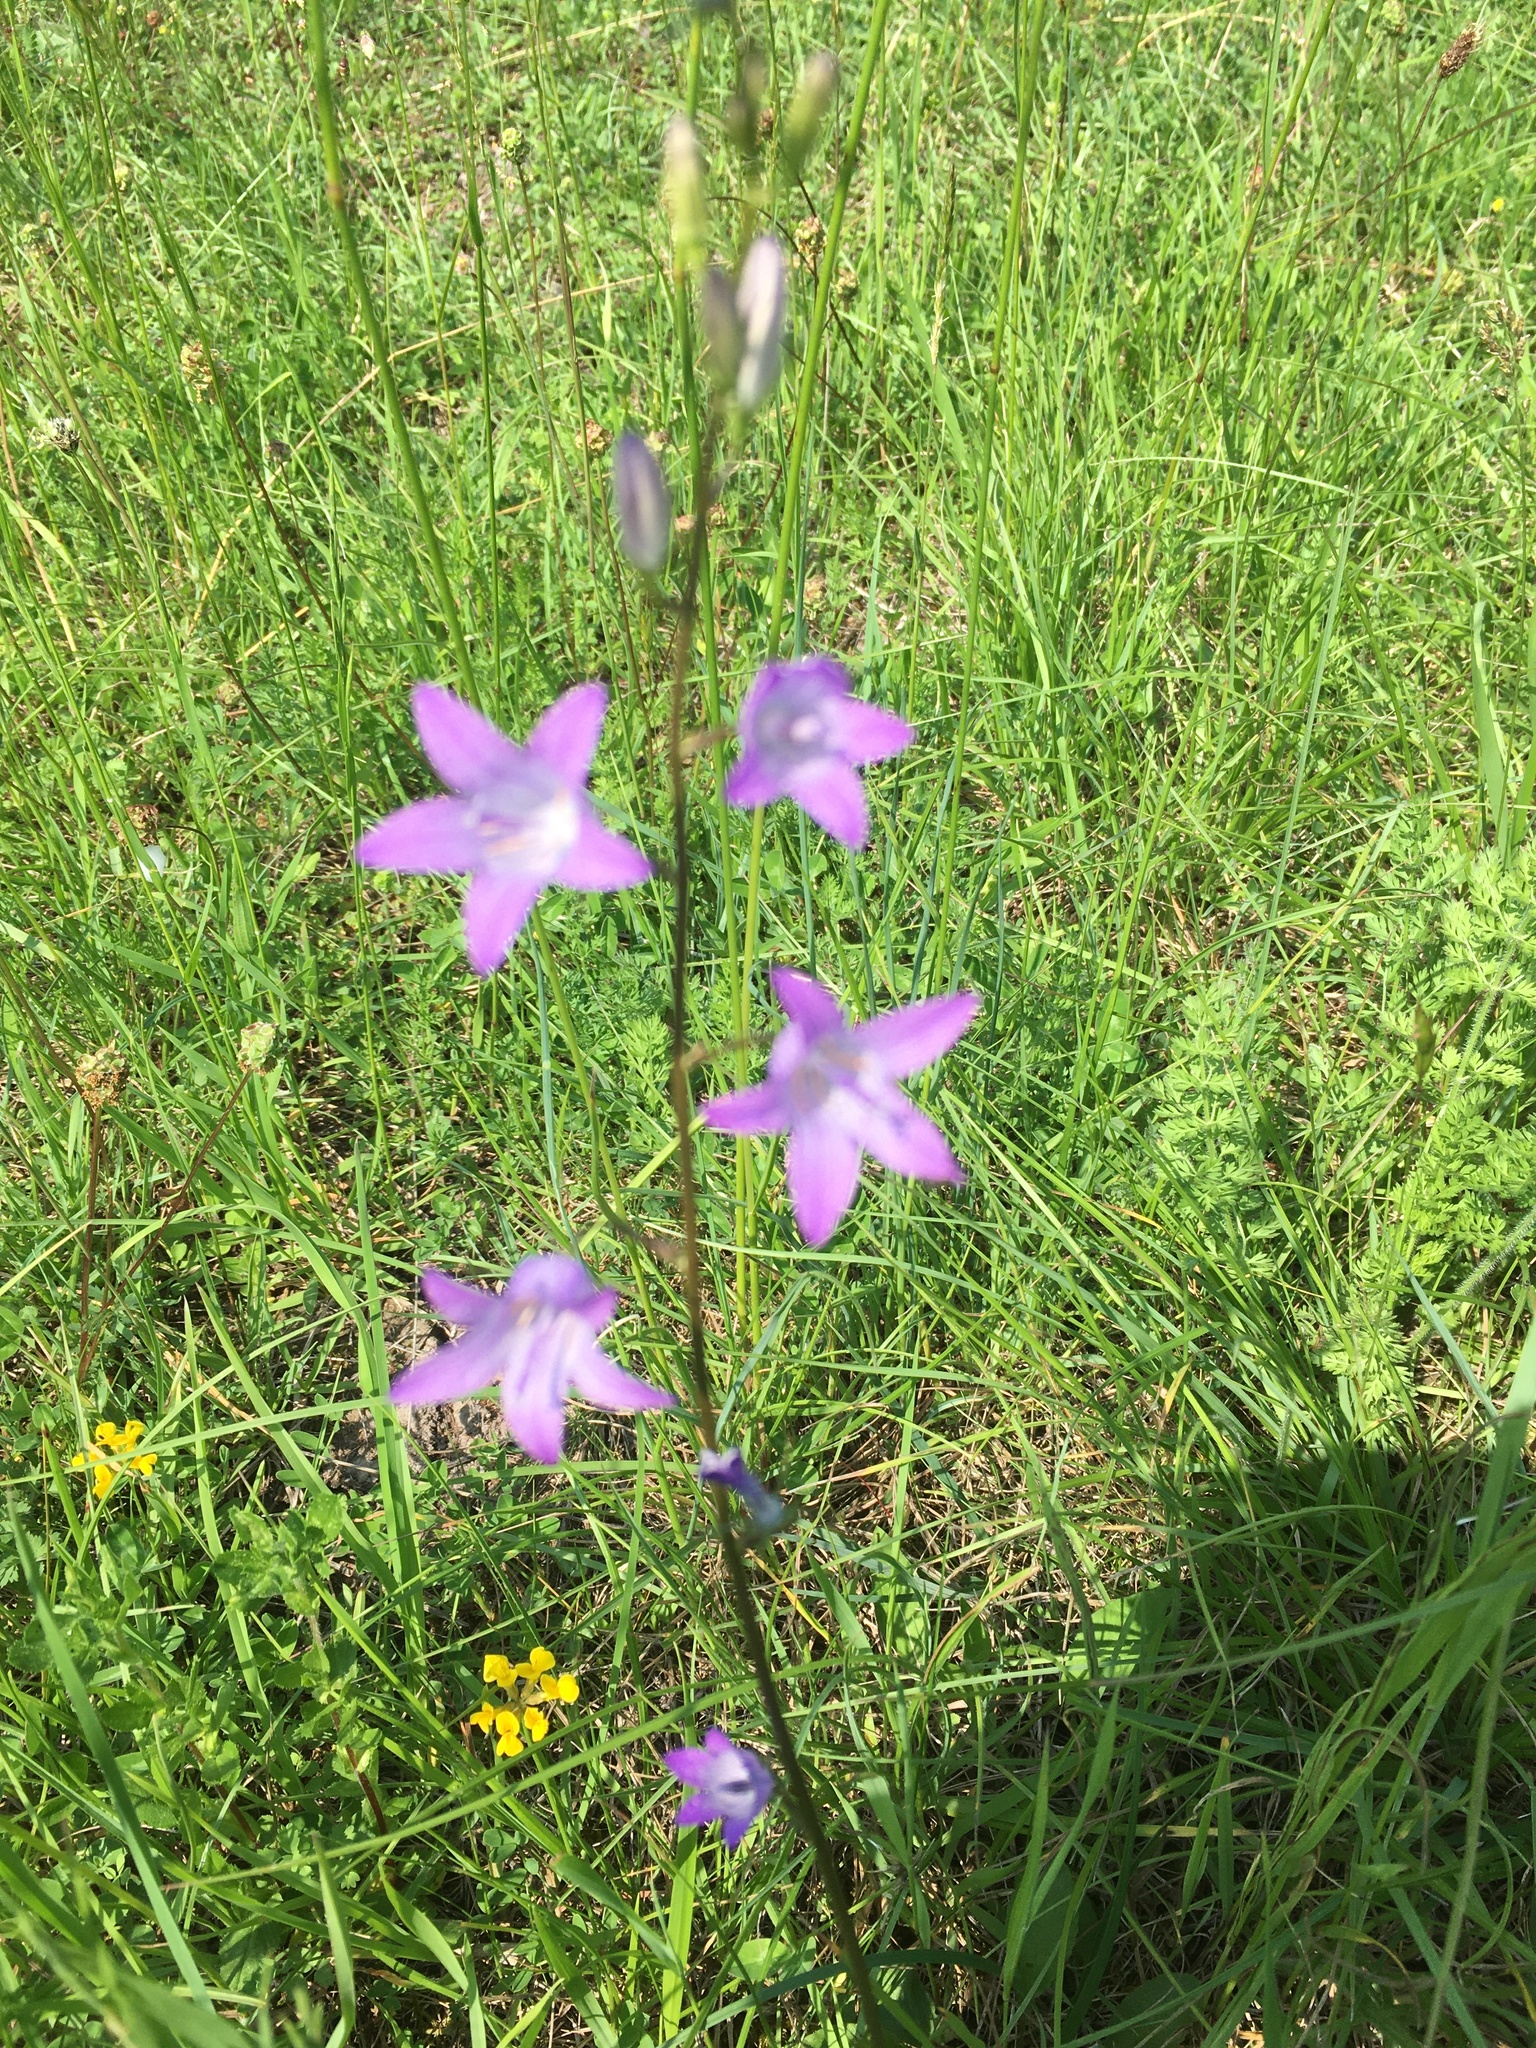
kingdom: Plantae
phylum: Tracheophyta
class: Magnoliopsida
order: Asterales
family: Campanulaceae
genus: Campanula
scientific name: Campanula rapunculus
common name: Rampion bellflower
